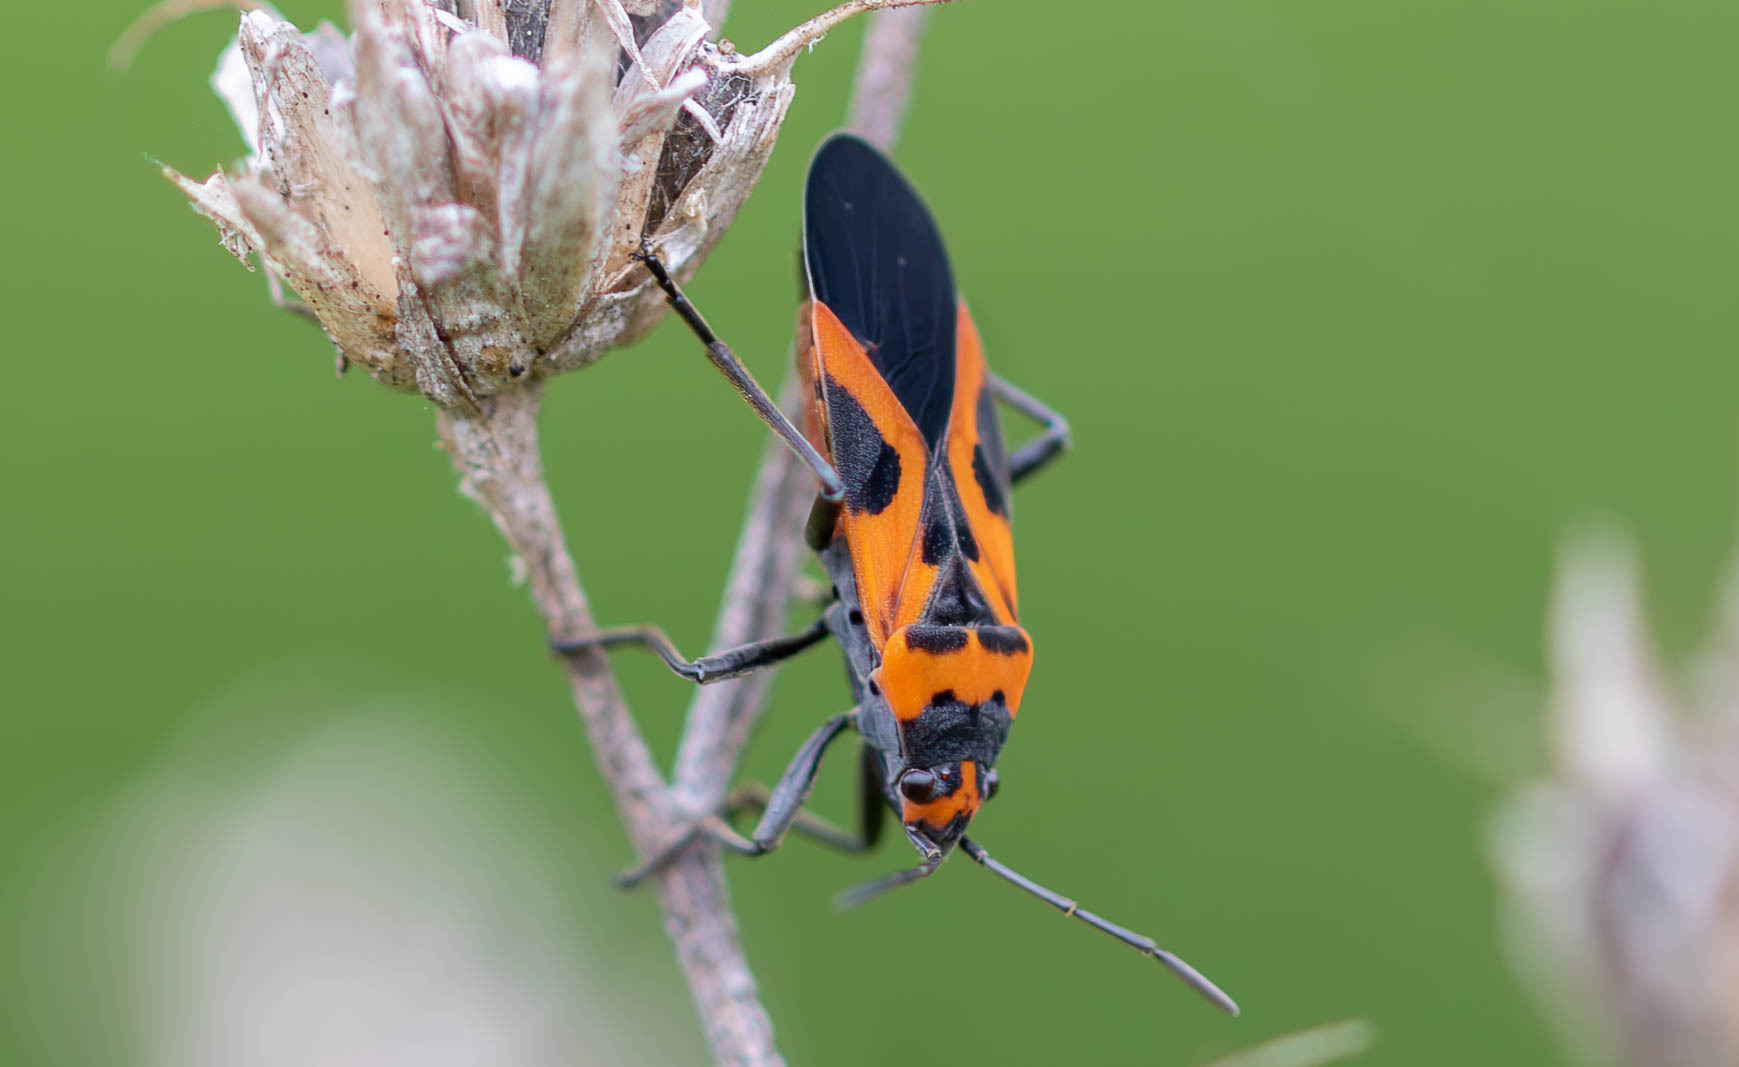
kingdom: Animalia
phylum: Arthropoda
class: Insecta
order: Hemiptera
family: Lygaeidae
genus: Lygaeus
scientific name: Lygaeus turcicus
